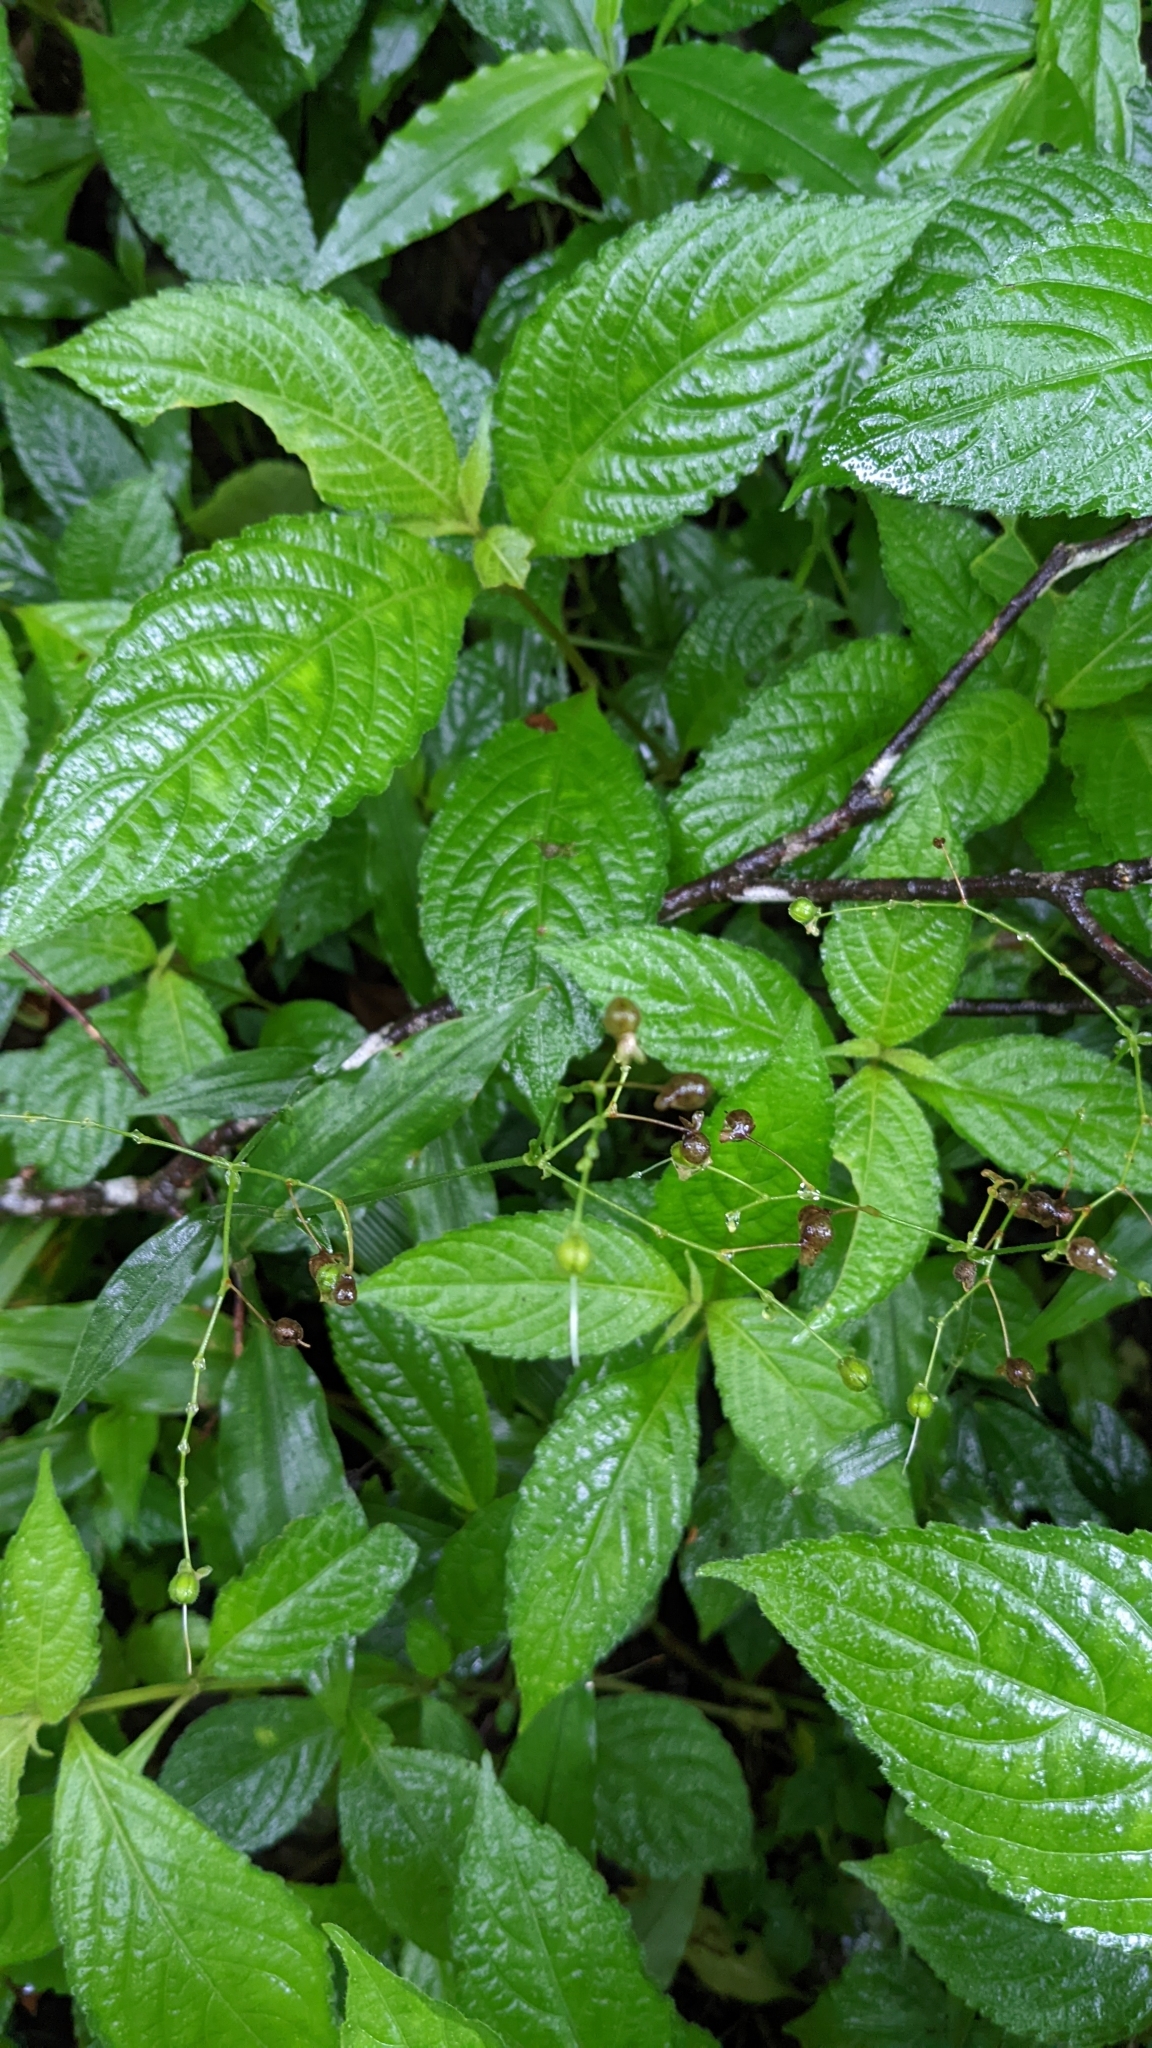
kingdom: Plantae
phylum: Tracheophyta
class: Liliopsida
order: Commelinales
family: Commelinaceae
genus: Rhopalephora
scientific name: Rhopalephora scaberrima
